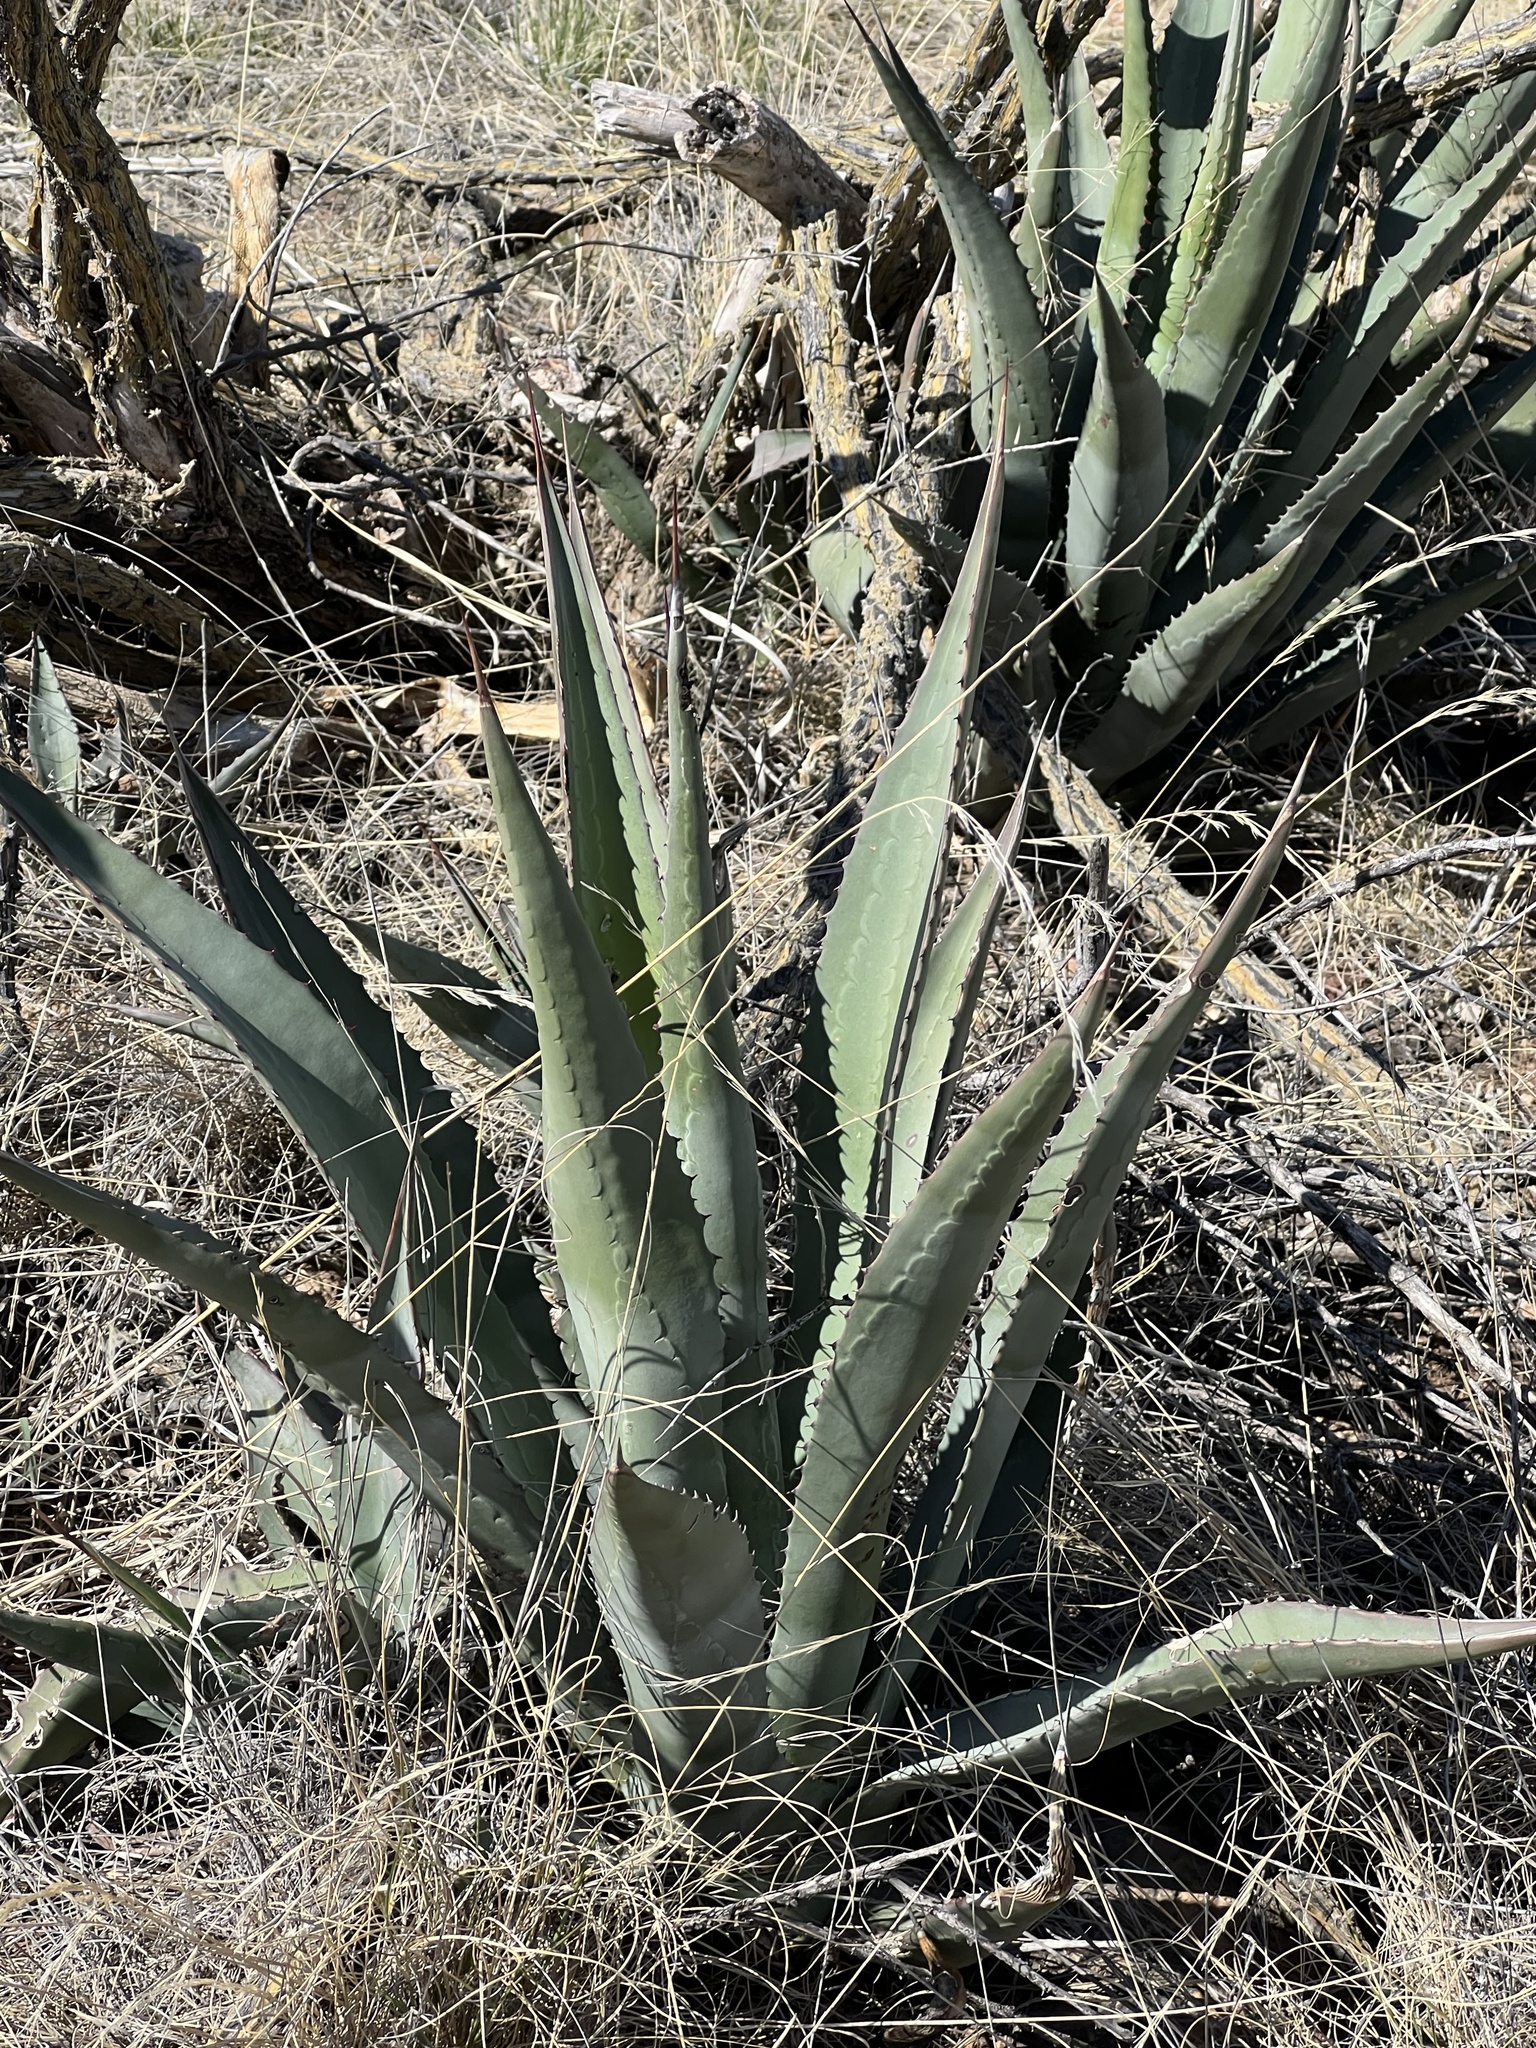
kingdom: Plantae
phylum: Tracheophyta
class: Liliopsida
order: Asparagales
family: Asparagaceae
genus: Agave
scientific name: Agave palmeri
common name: Palmer agave
